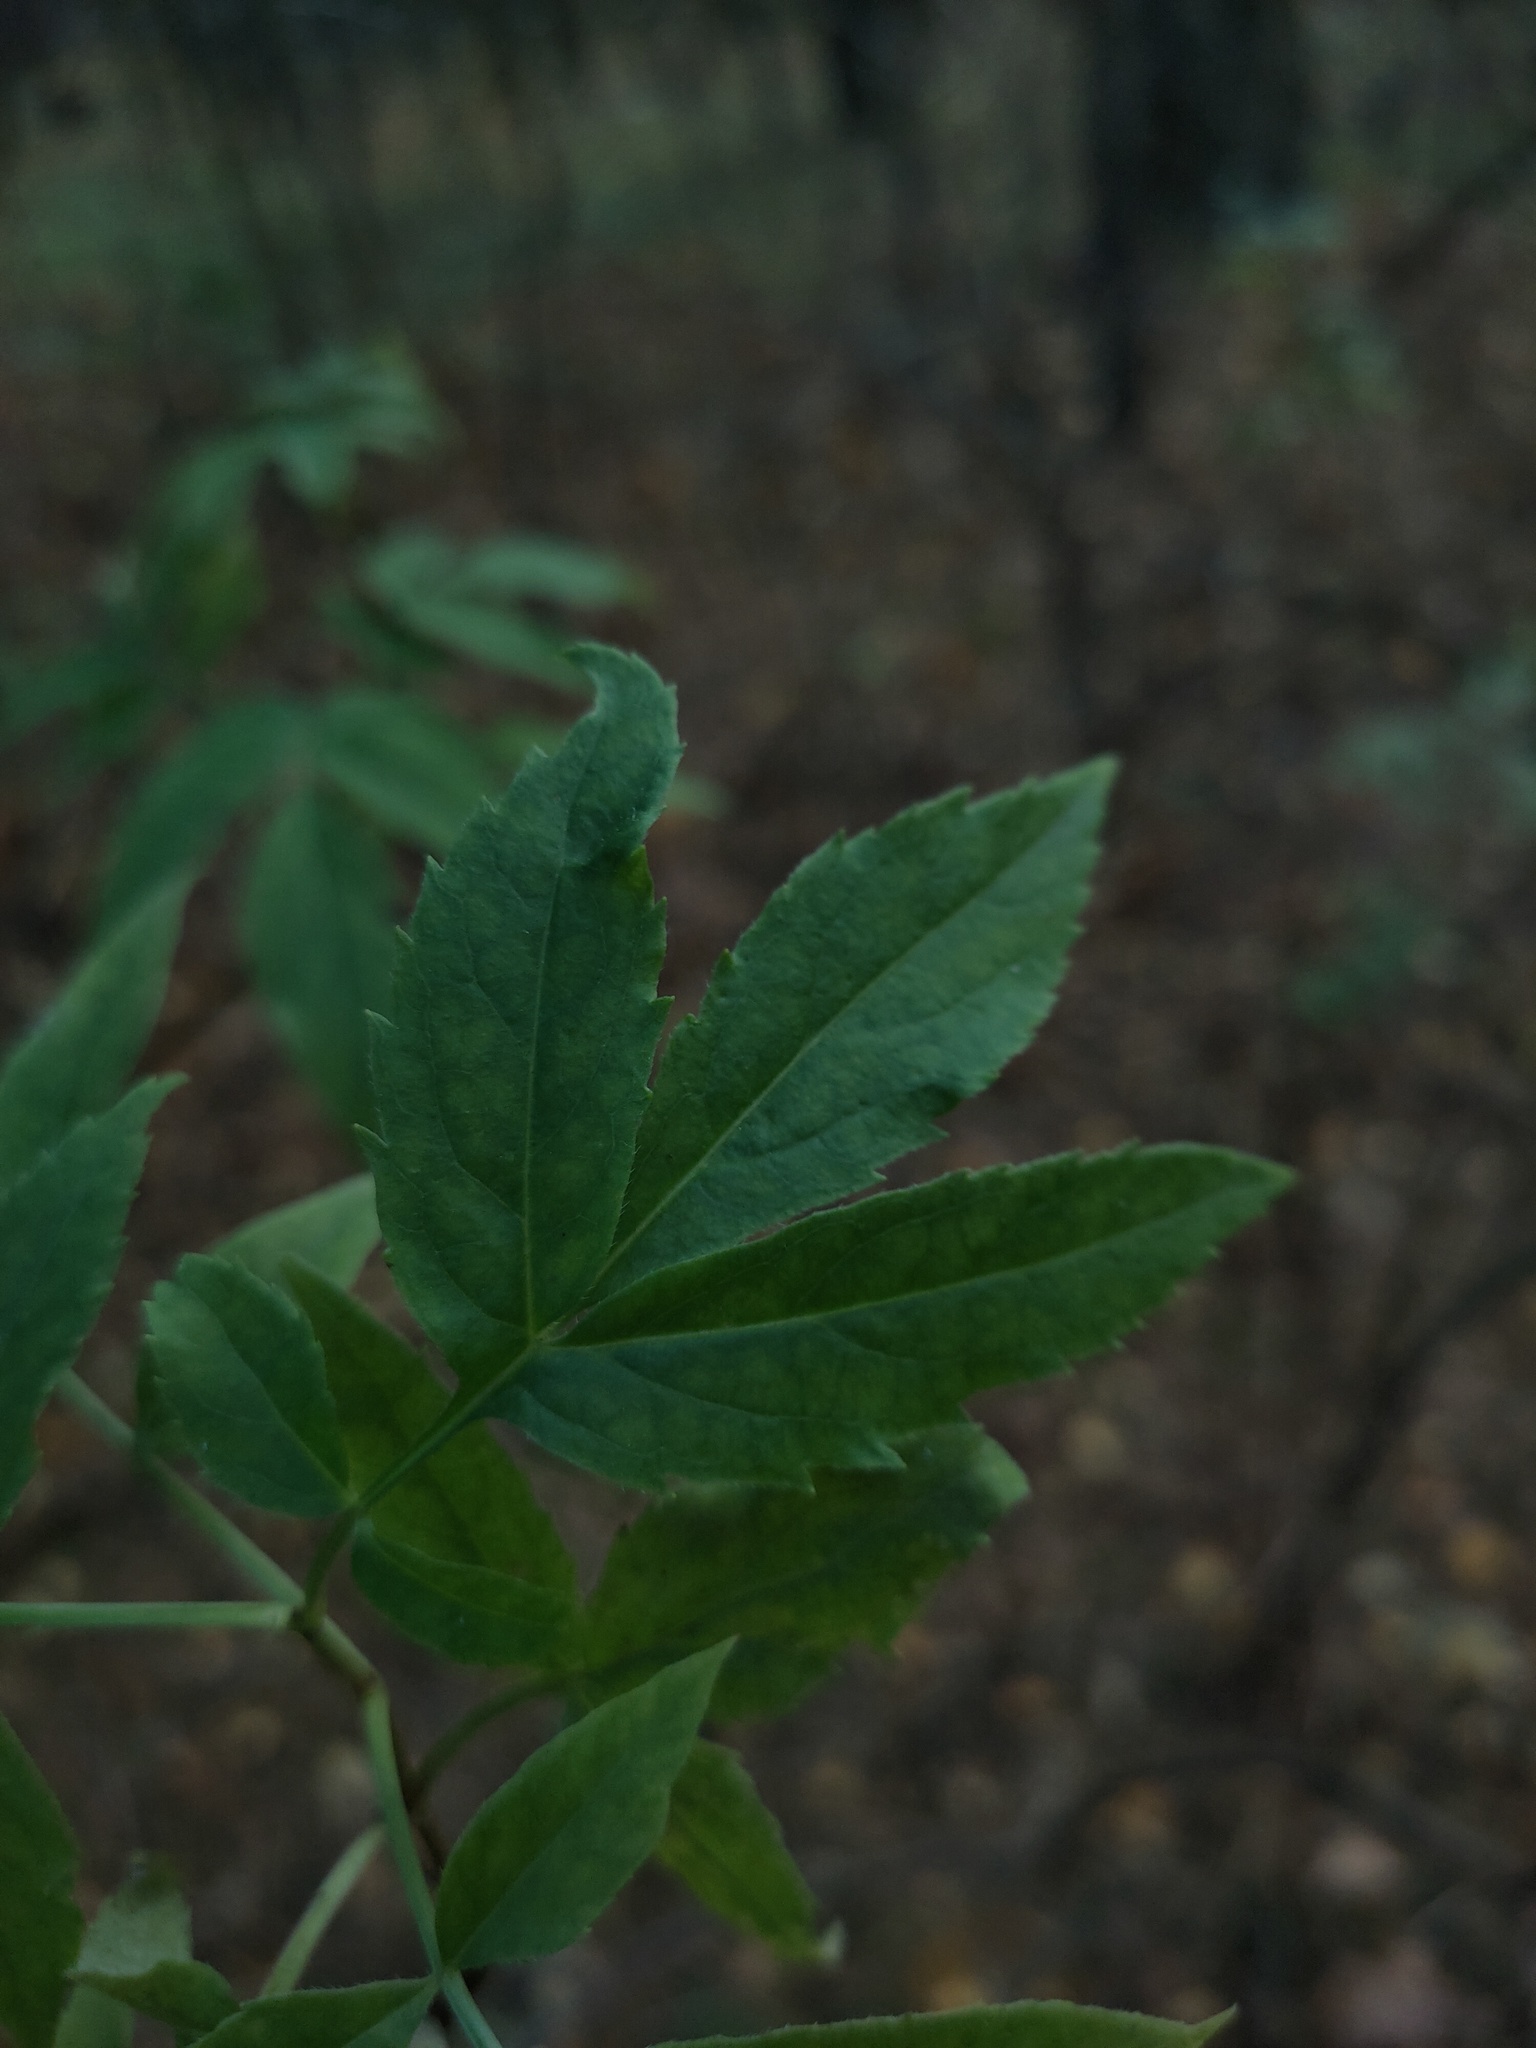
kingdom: Plantae
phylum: Tracheophyta
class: Magnoliopsida
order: Dipsacales
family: Viburnaceae
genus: Sambucus
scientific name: Sambucus racemosa
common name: Red-berried elder
